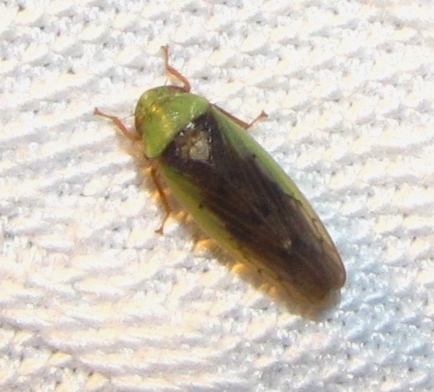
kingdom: Animalia
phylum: Arthropoda
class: Insecta
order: Hemiptera
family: Cicadellidae
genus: Ponana
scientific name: Ponana pectoralis
